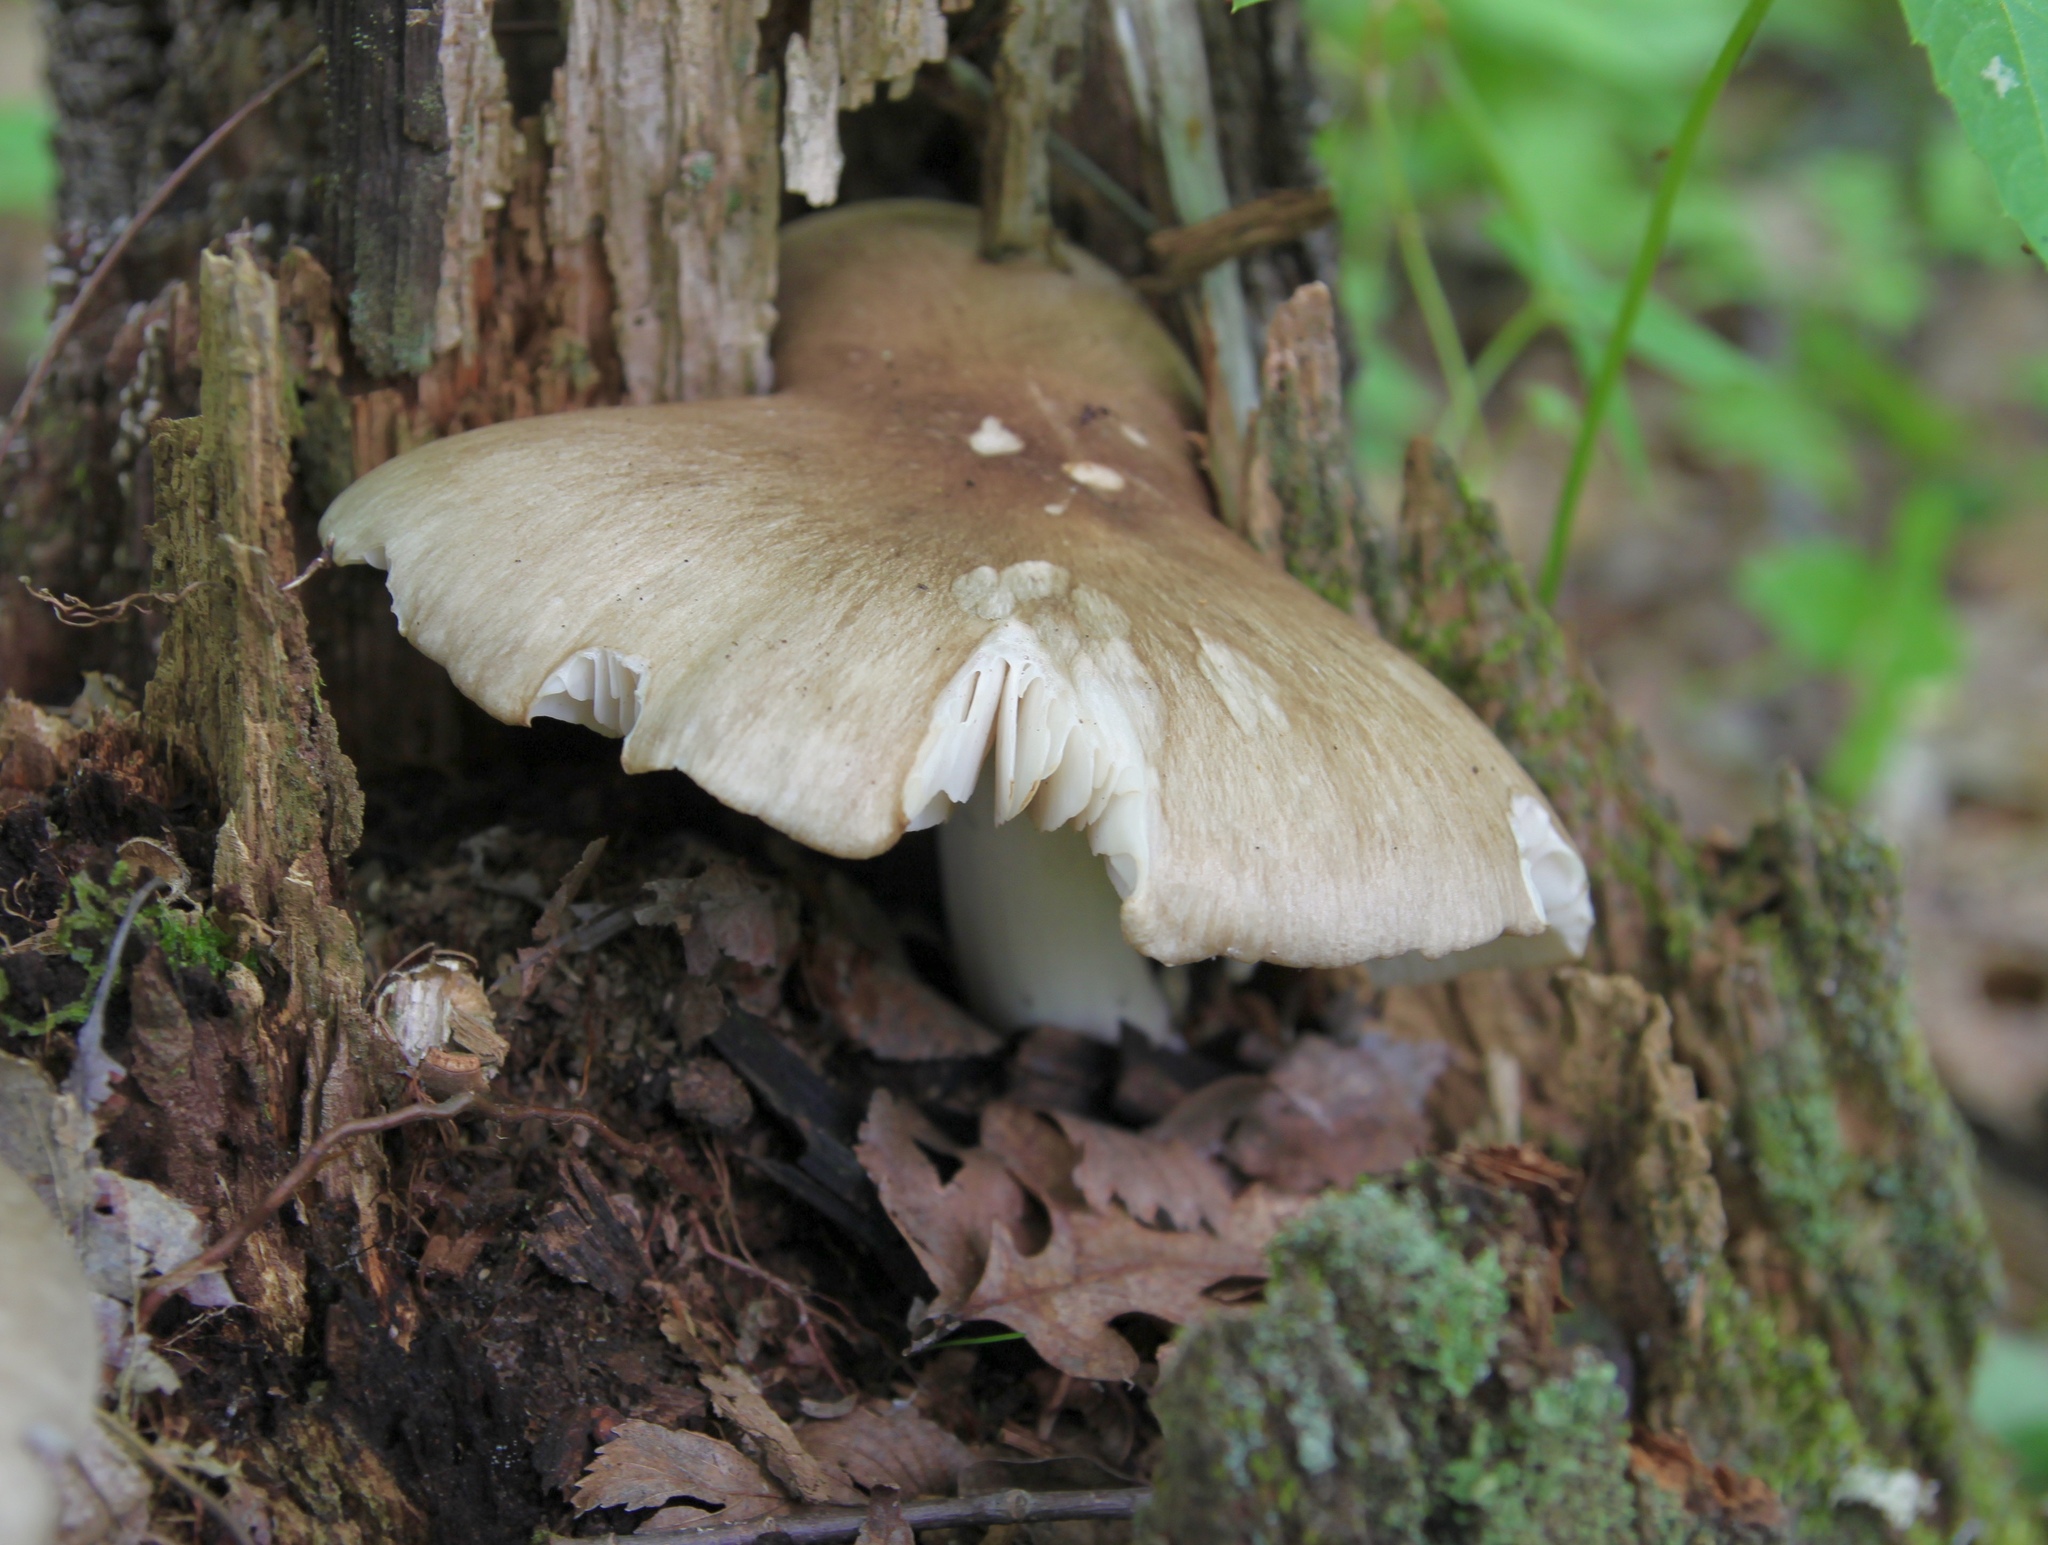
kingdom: Fungi
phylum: Basidiomycota
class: Agaricomycetes
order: Agaricales
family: Tricholomataceae
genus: Megacollybia
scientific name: Megacollybia rodmanii
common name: Eastern american platterful mushroom
